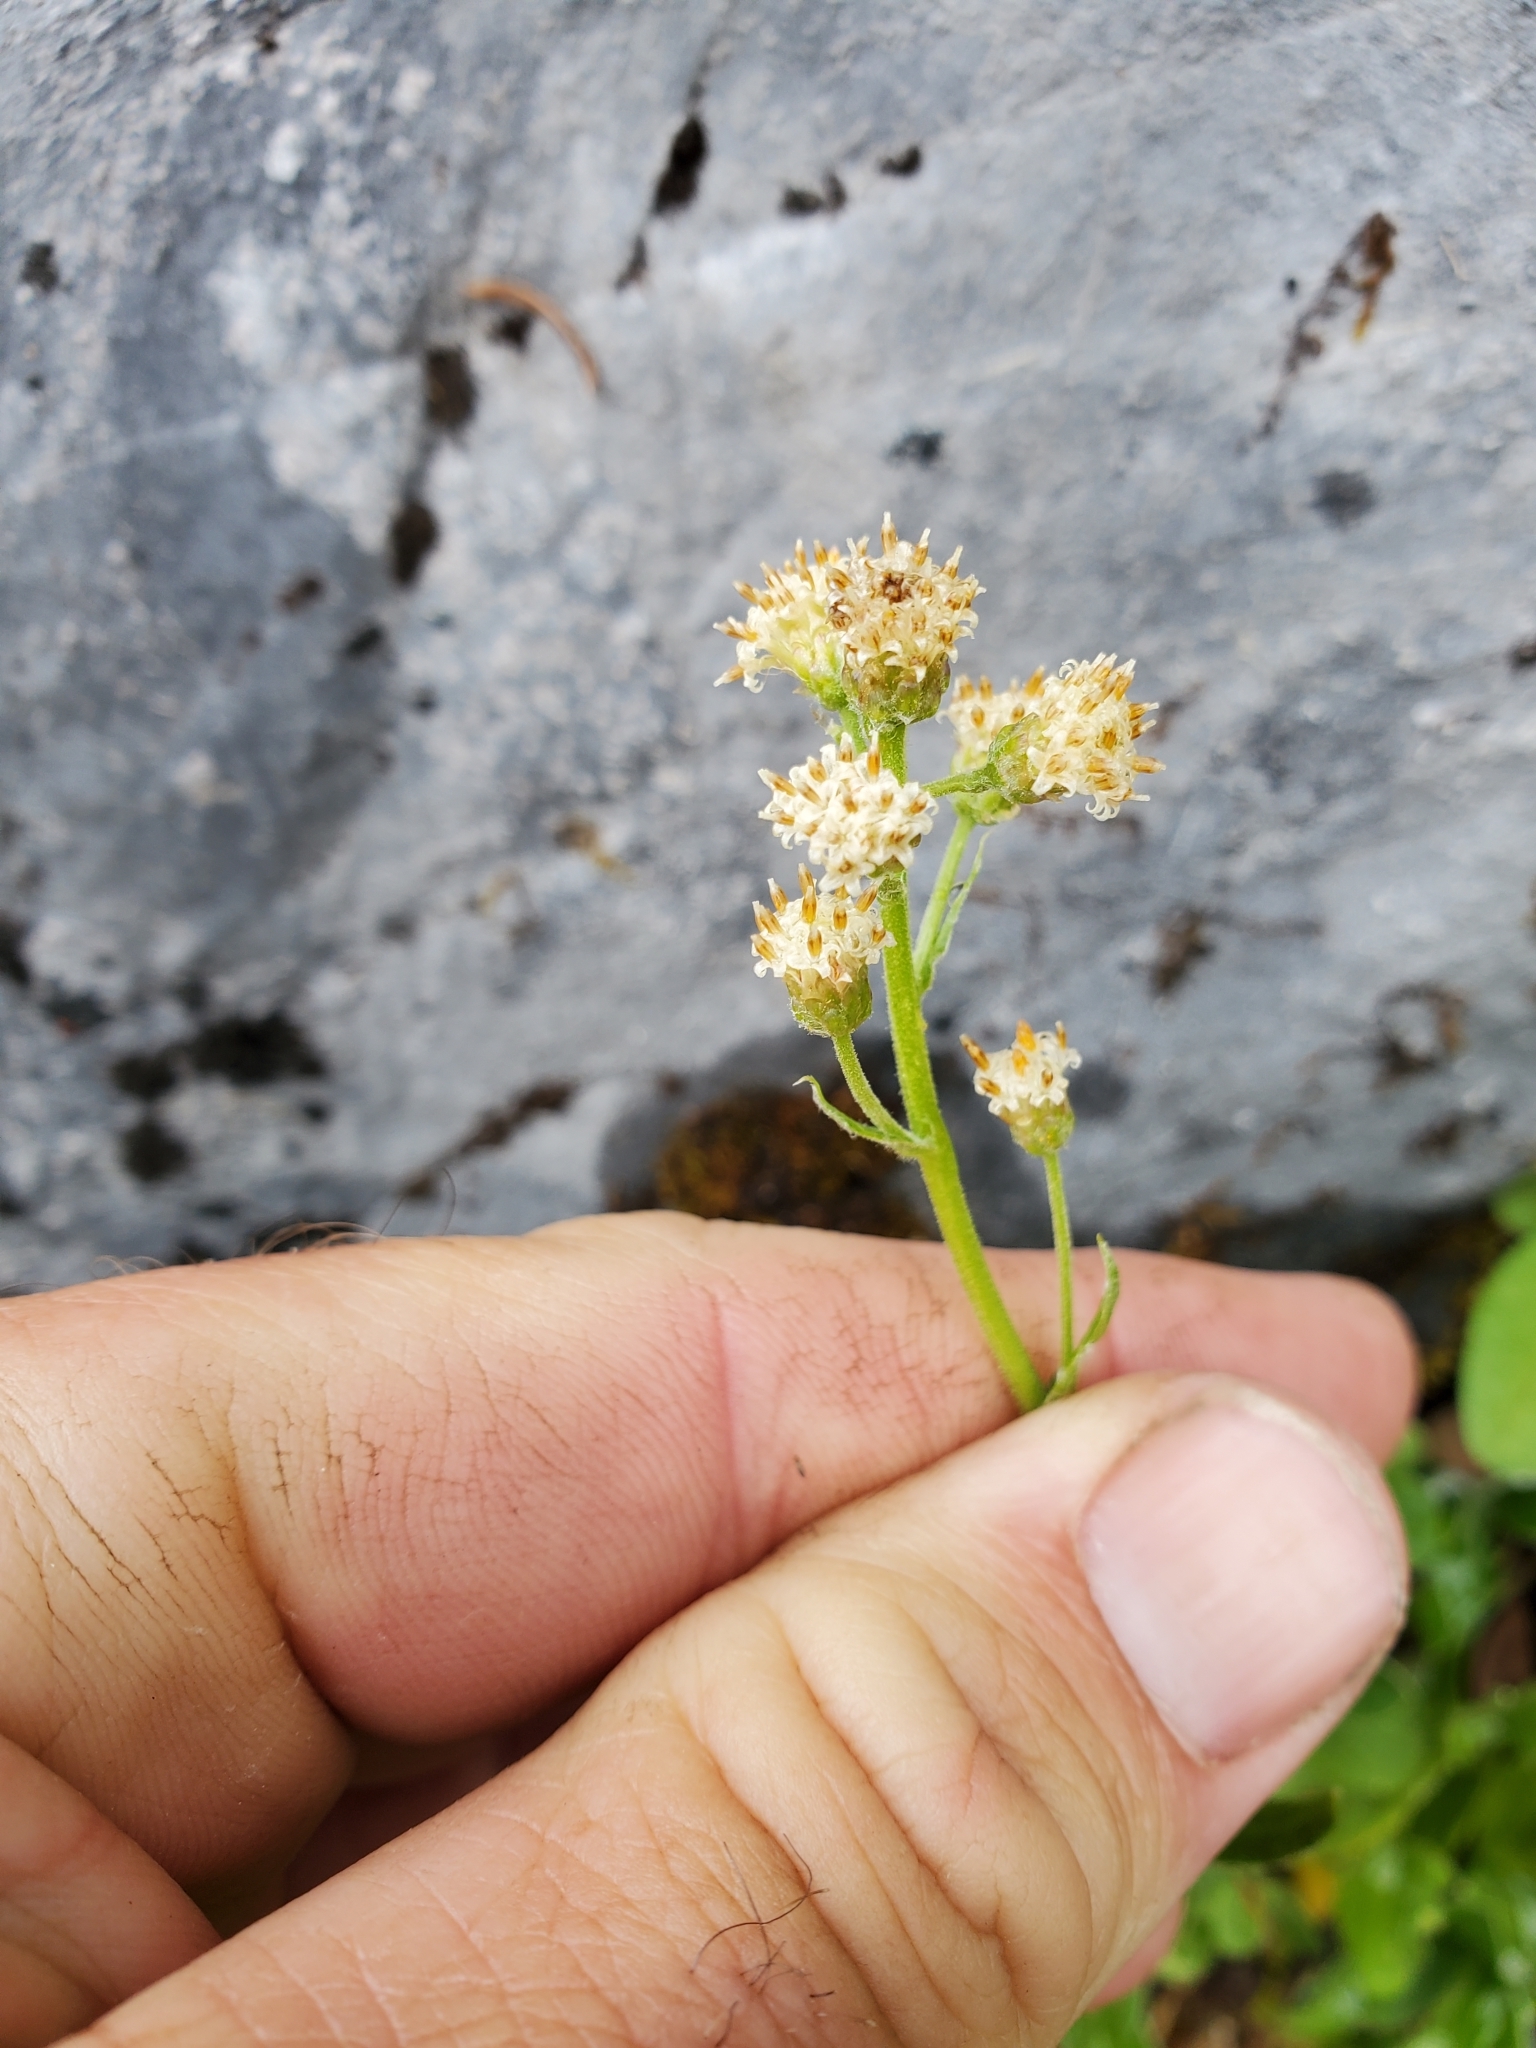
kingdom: Plantae
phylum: Tracheophyta
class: Magnoliopsida
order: Asterales
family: Asteraceae
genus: Antennaria
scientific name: Antennaria racemosa
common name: Racemose pussytoes
